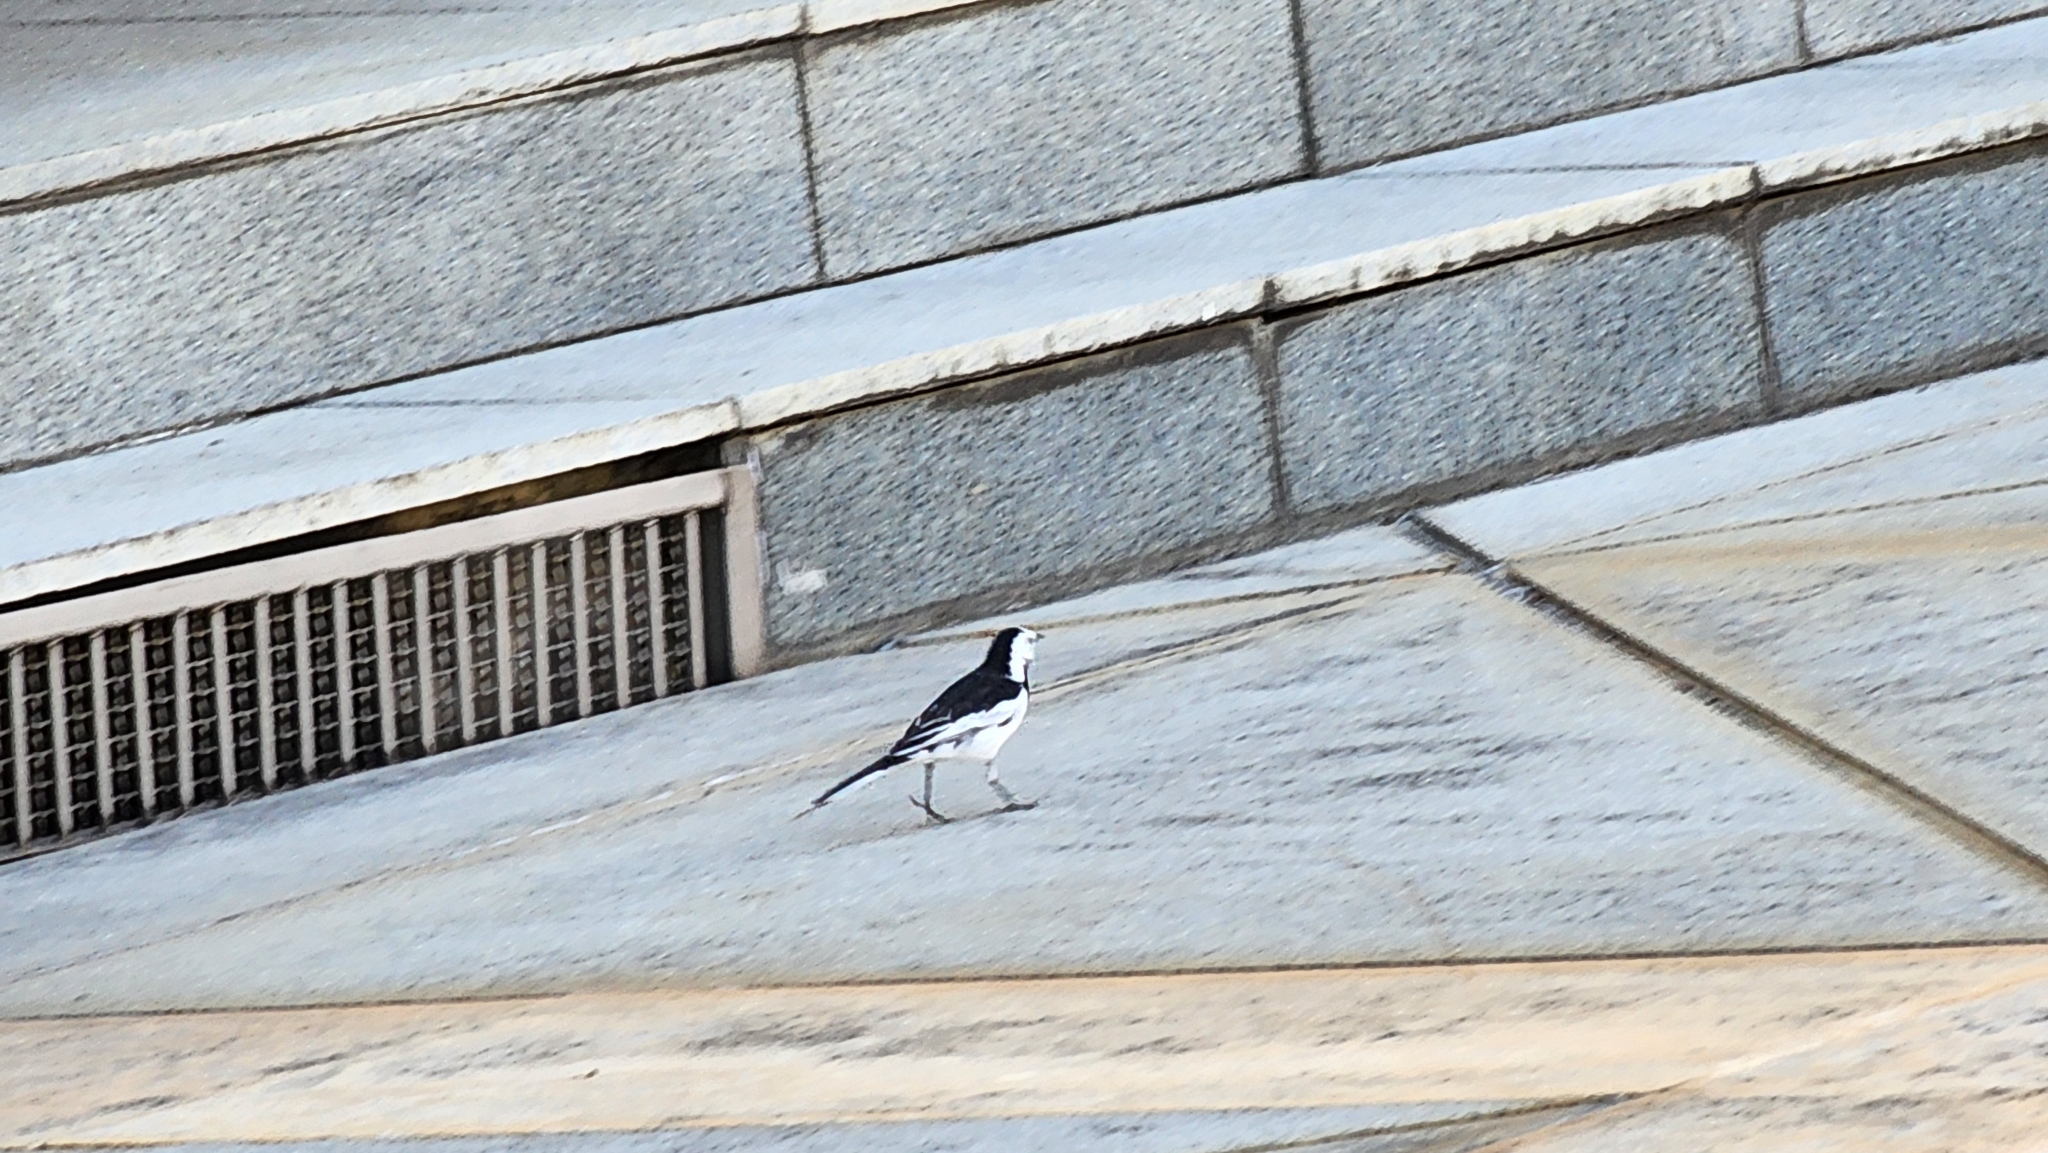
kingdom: Animalia
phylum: Chordata
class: Aves
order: Passeriformes
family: Motacillidae
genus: Motacilla
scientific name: Motacilla alba
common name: White wagtail
